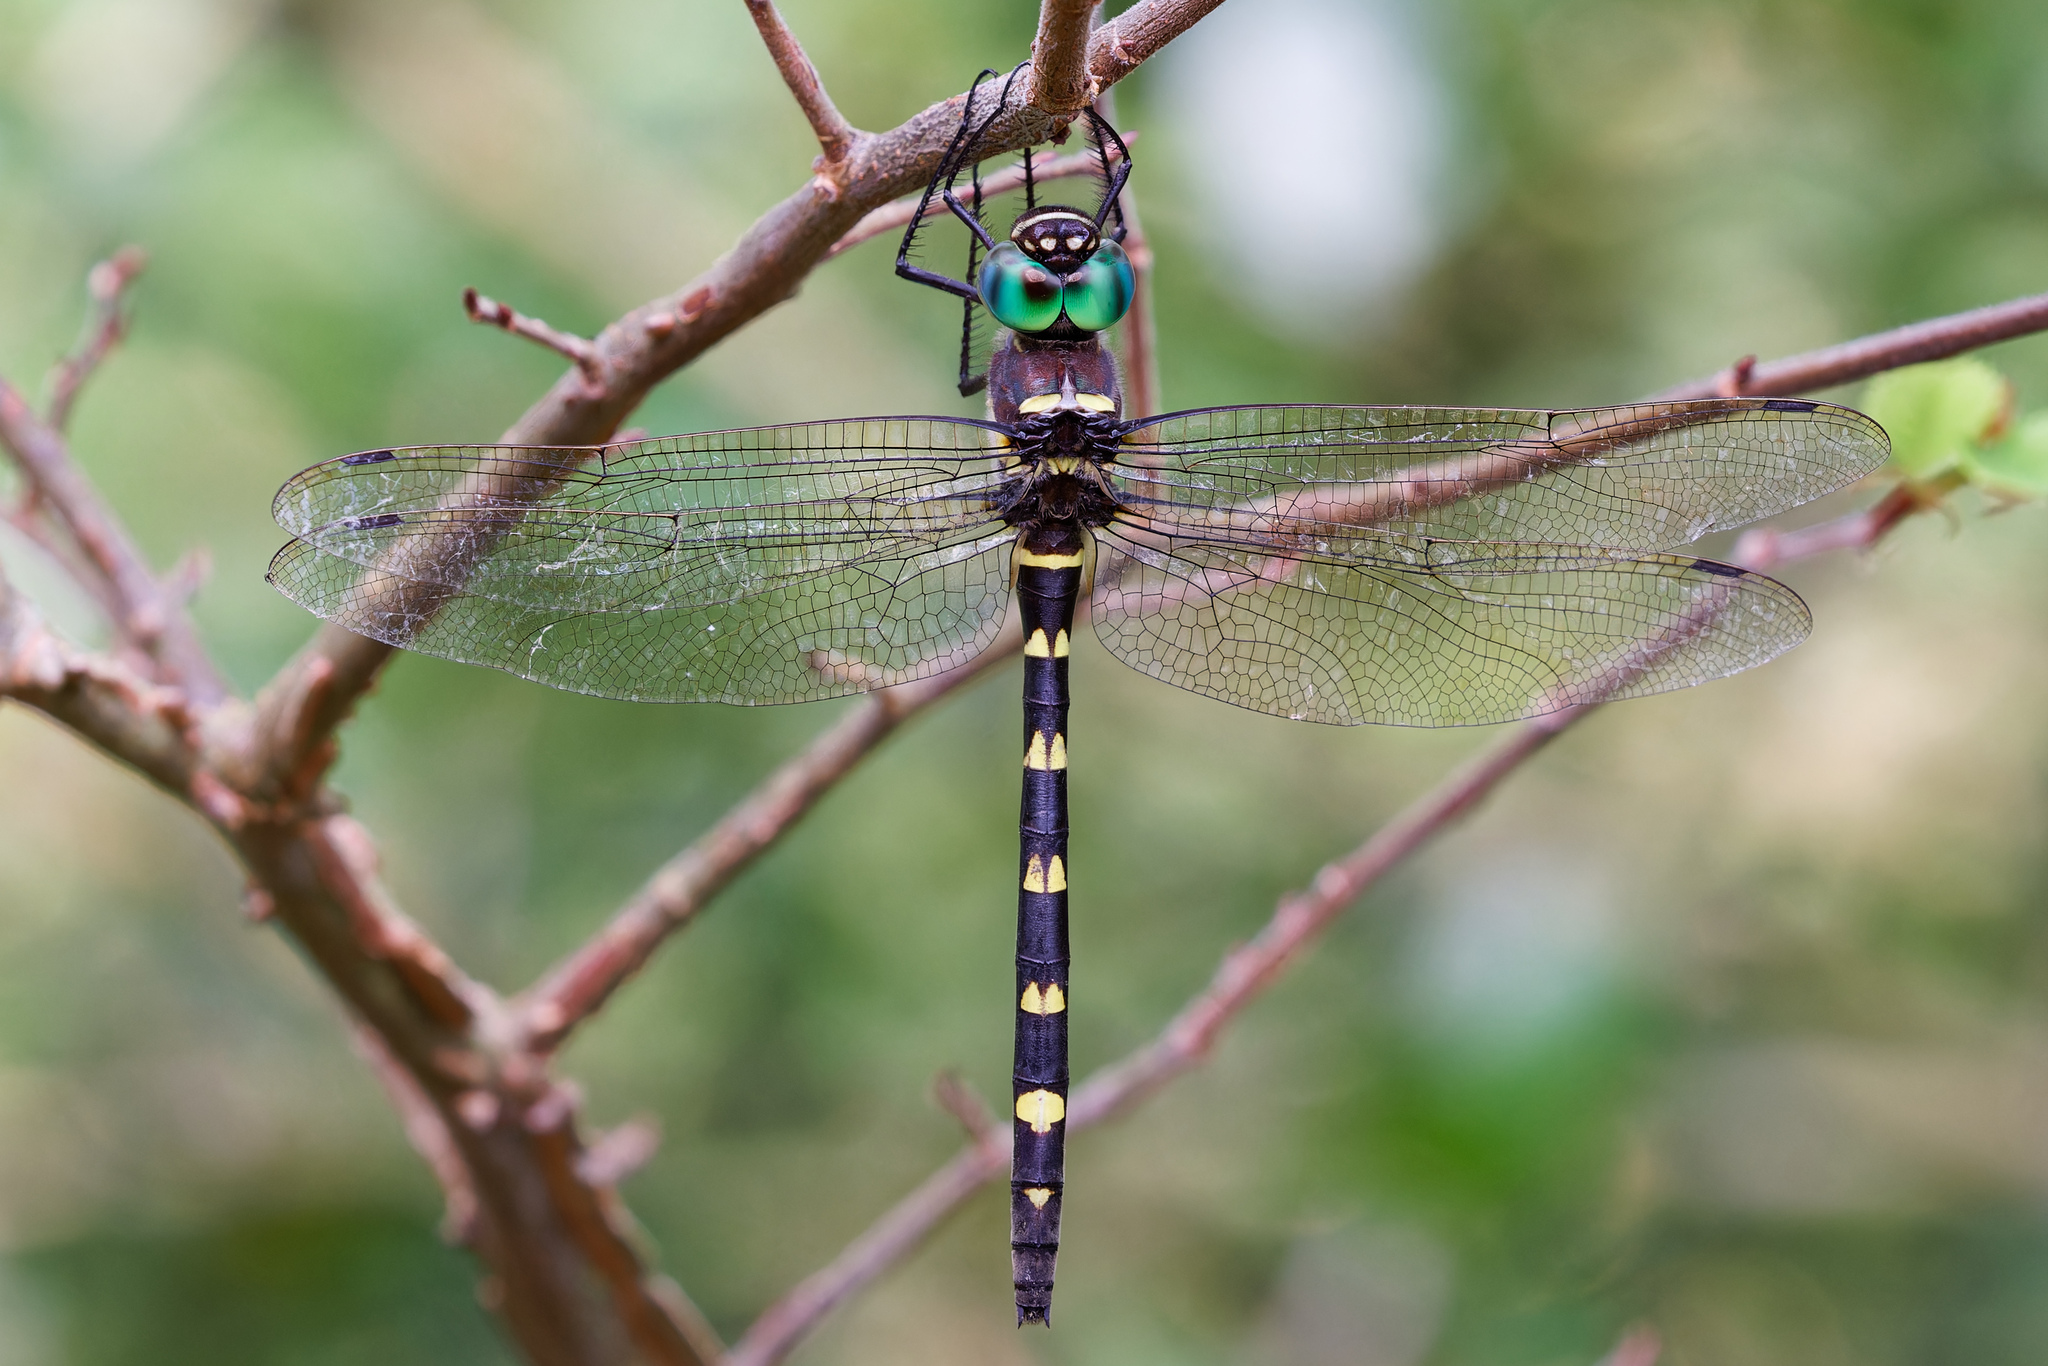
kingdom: Animalia
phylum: Arthropoda
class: Insecta
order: Odonata
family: Macromiidae
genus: Macromia
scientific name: Macromia illinoiensis
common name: Swift river cruiser
